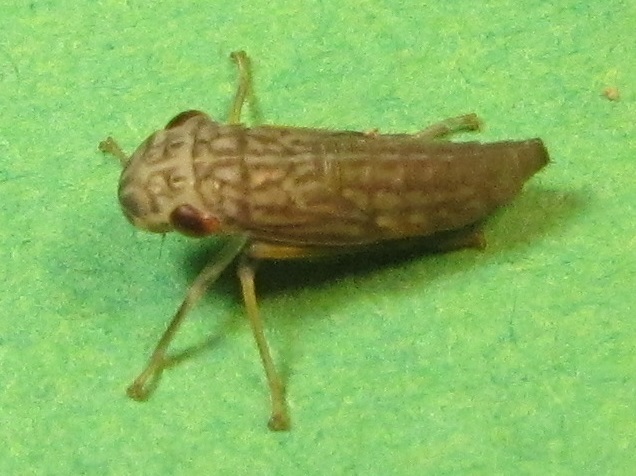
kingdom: Animalia
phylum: Arthropoda
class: Insecta
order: Hemiptera
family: Cicadellidae
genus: Oncometopia
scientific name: Oncometopia orbona
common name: Broad-headed sharpshooter
